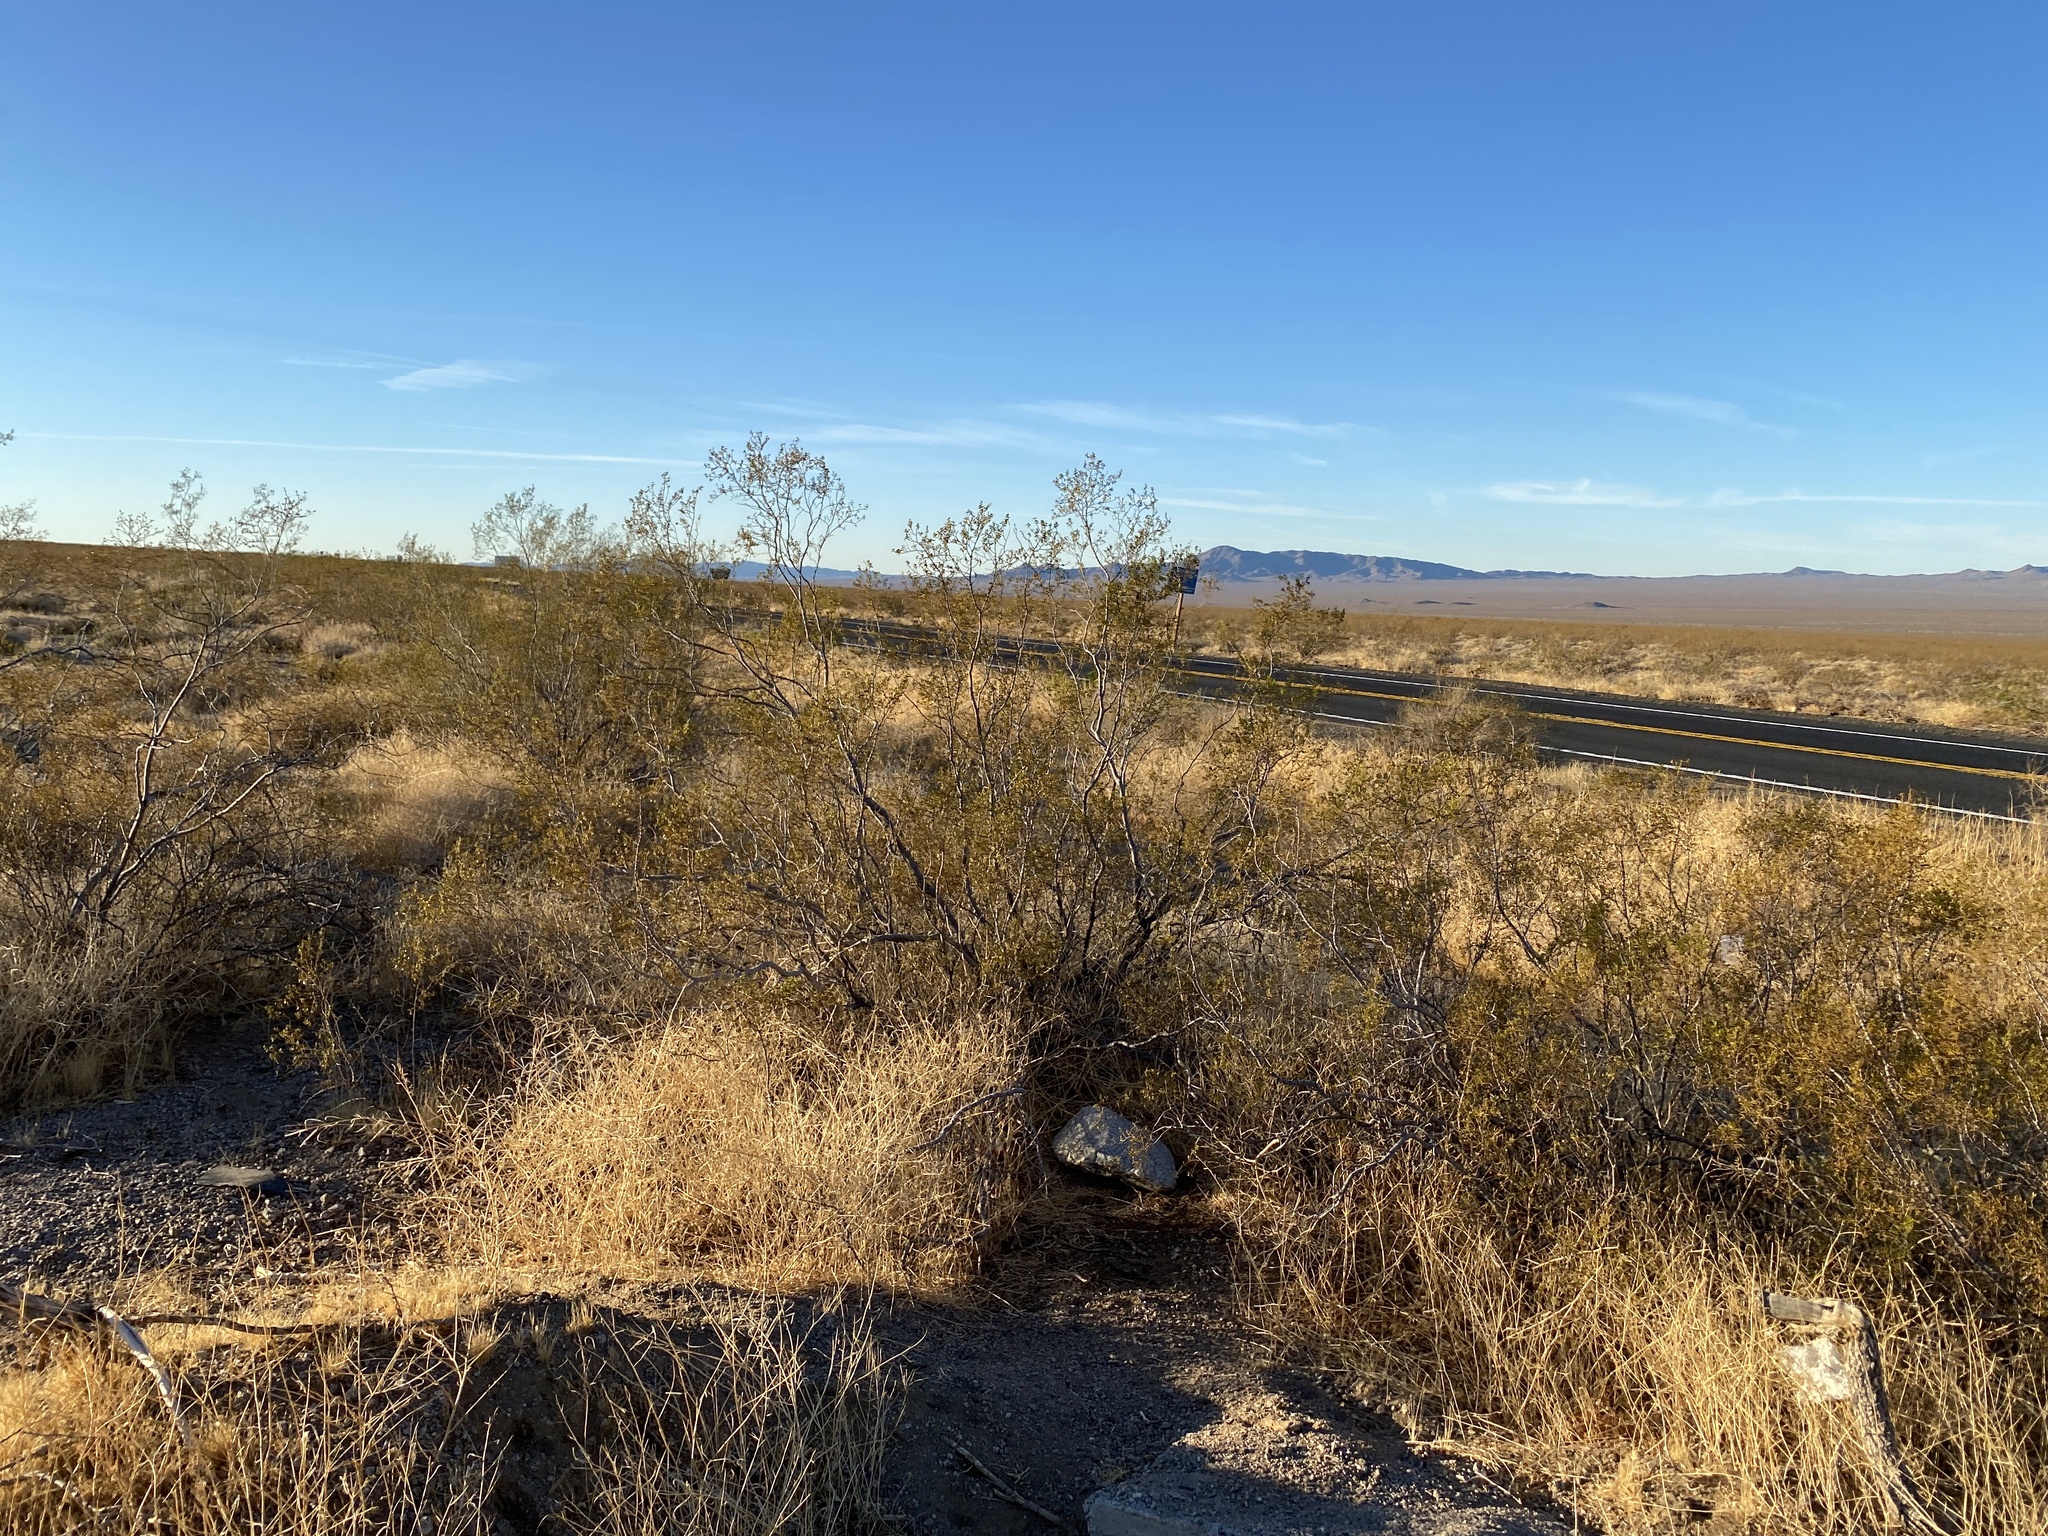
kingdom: Plantae
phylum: Tracheophyta
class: Magnoliopsida
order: Zygophyllales
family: Zygophyllaceae
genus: Larrea
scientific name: Larrea tridentata
